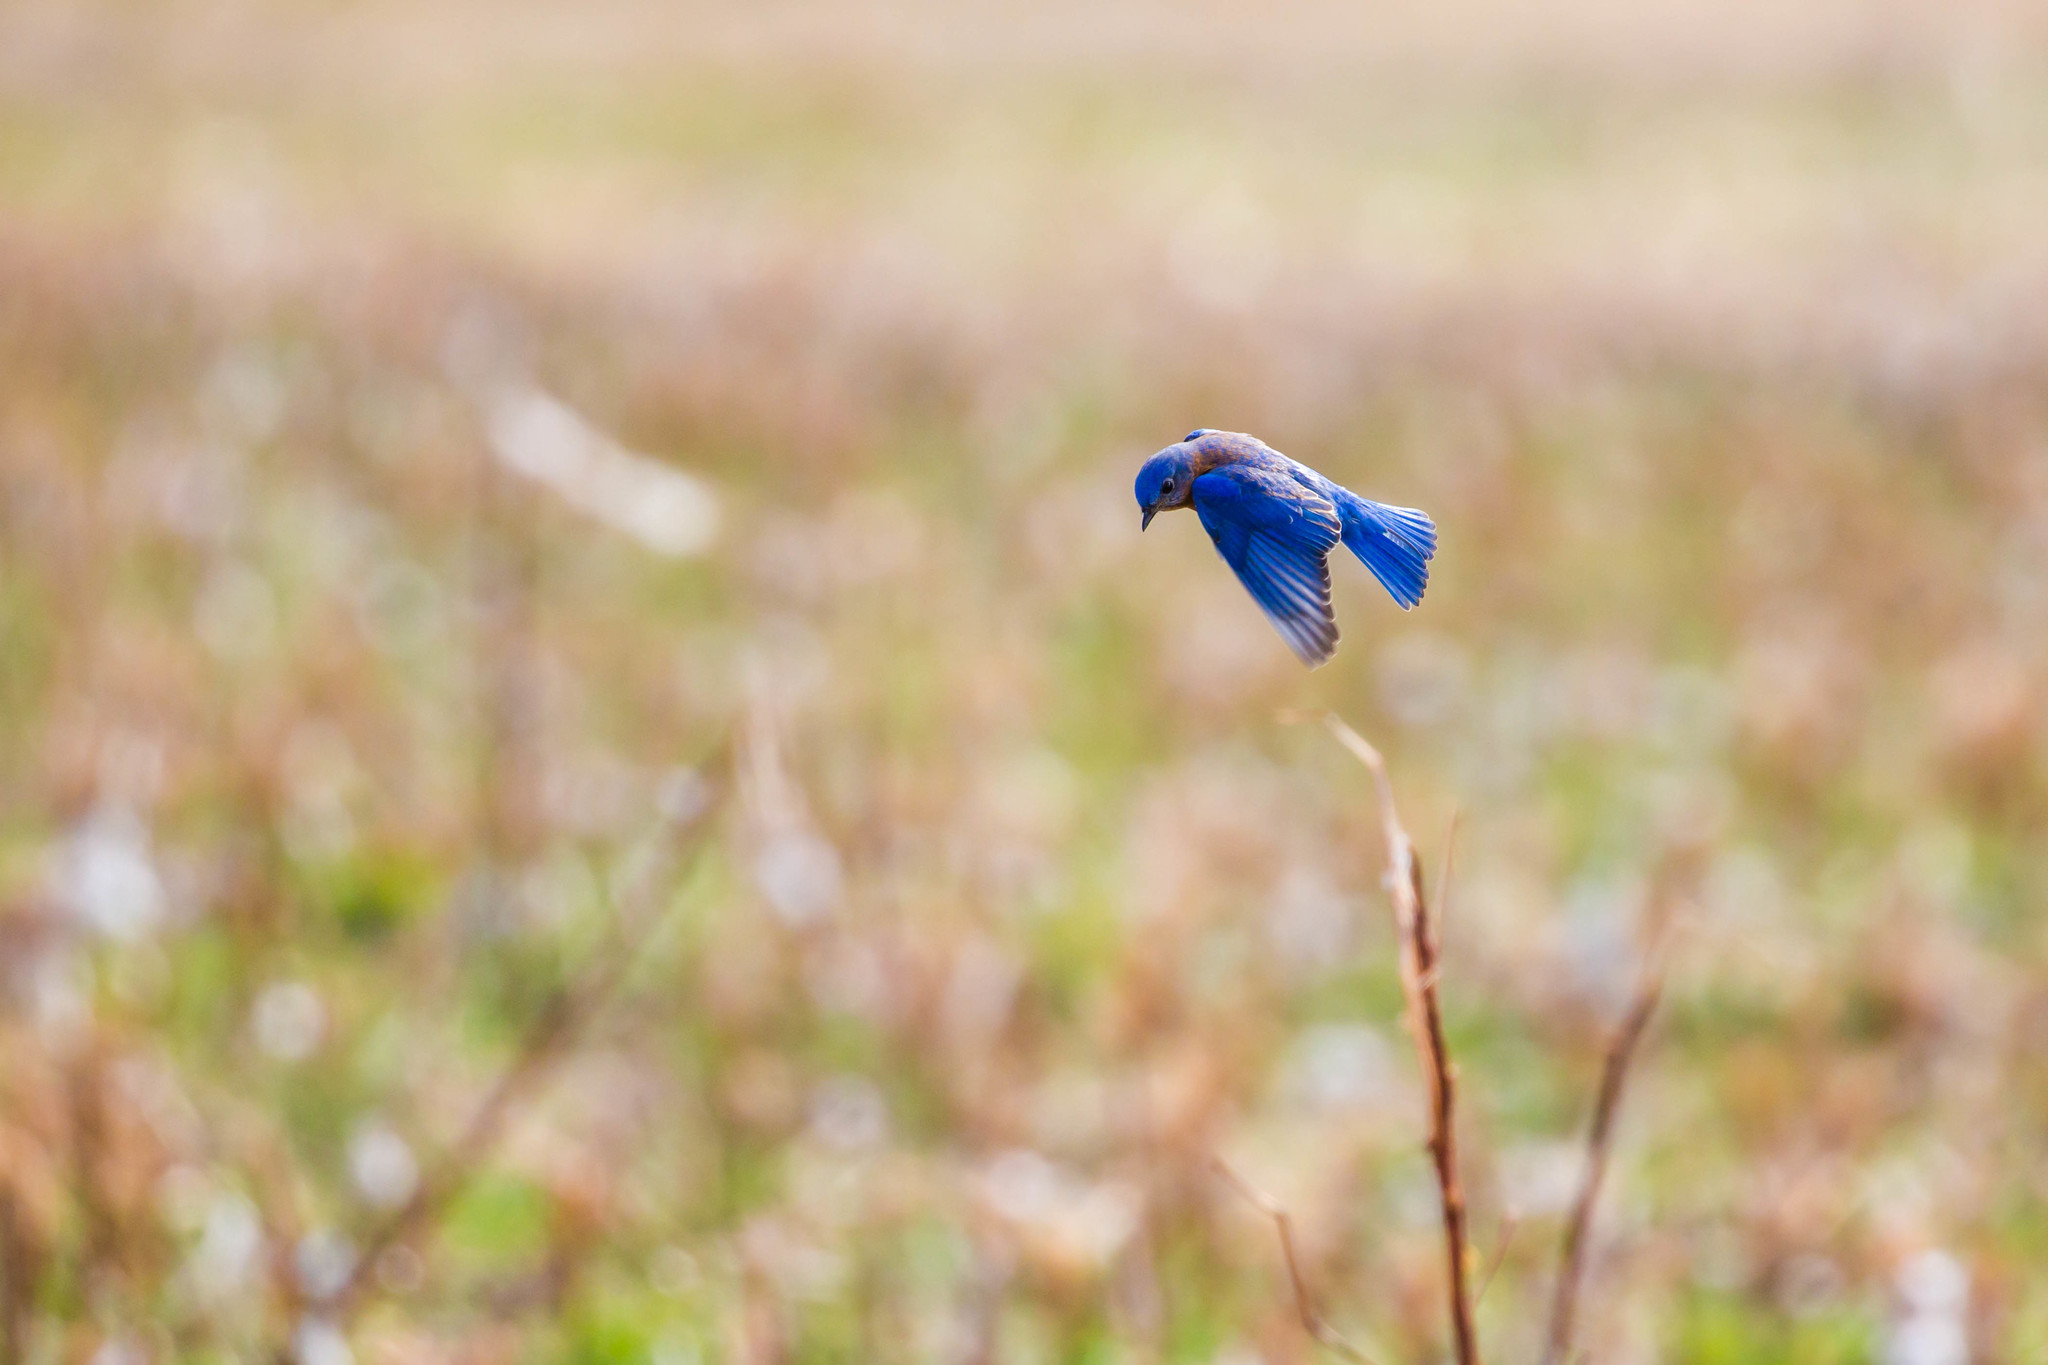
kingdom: Animalia
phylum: Chordata
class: Aves
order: Passeriformes
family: Turdidae
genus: Sialia
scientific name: Sialia sialis
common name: Eastern bluebird
